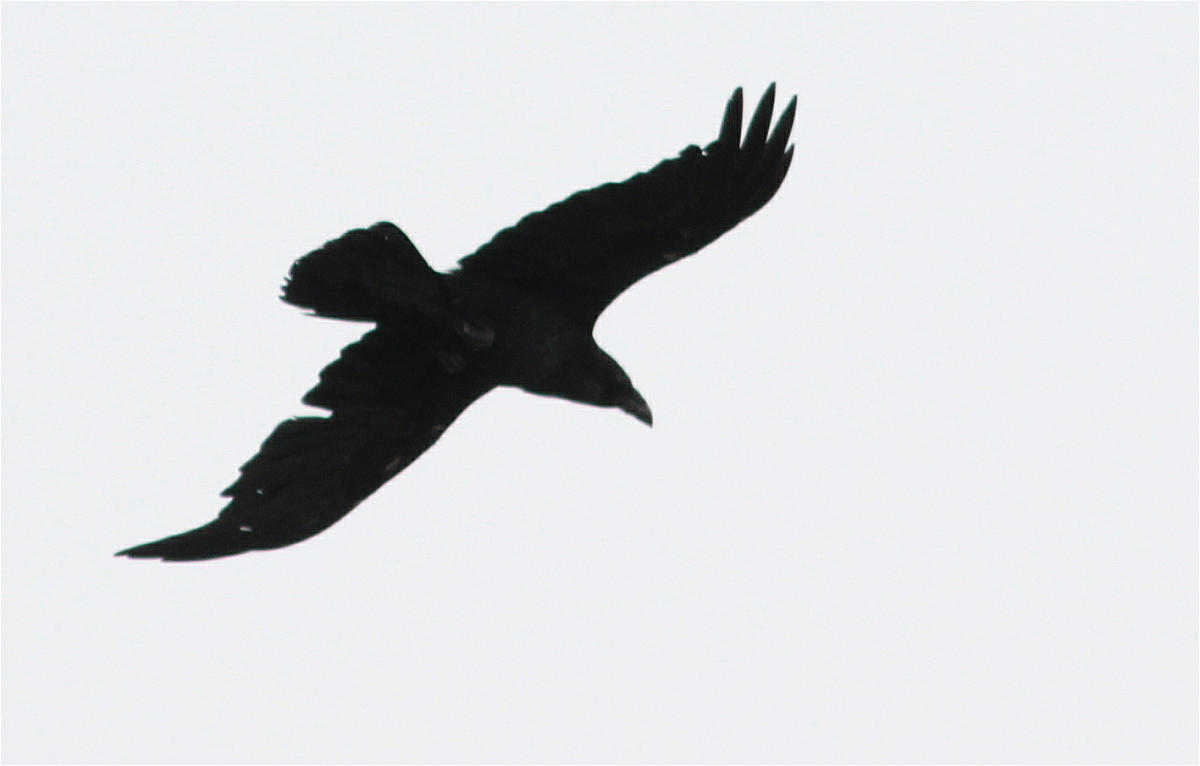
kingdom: Animalia
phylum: Chordata
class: Aves
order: Passeriformes
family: Corvidae
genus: Corvus
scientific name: Corvus corax
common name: Common raven
